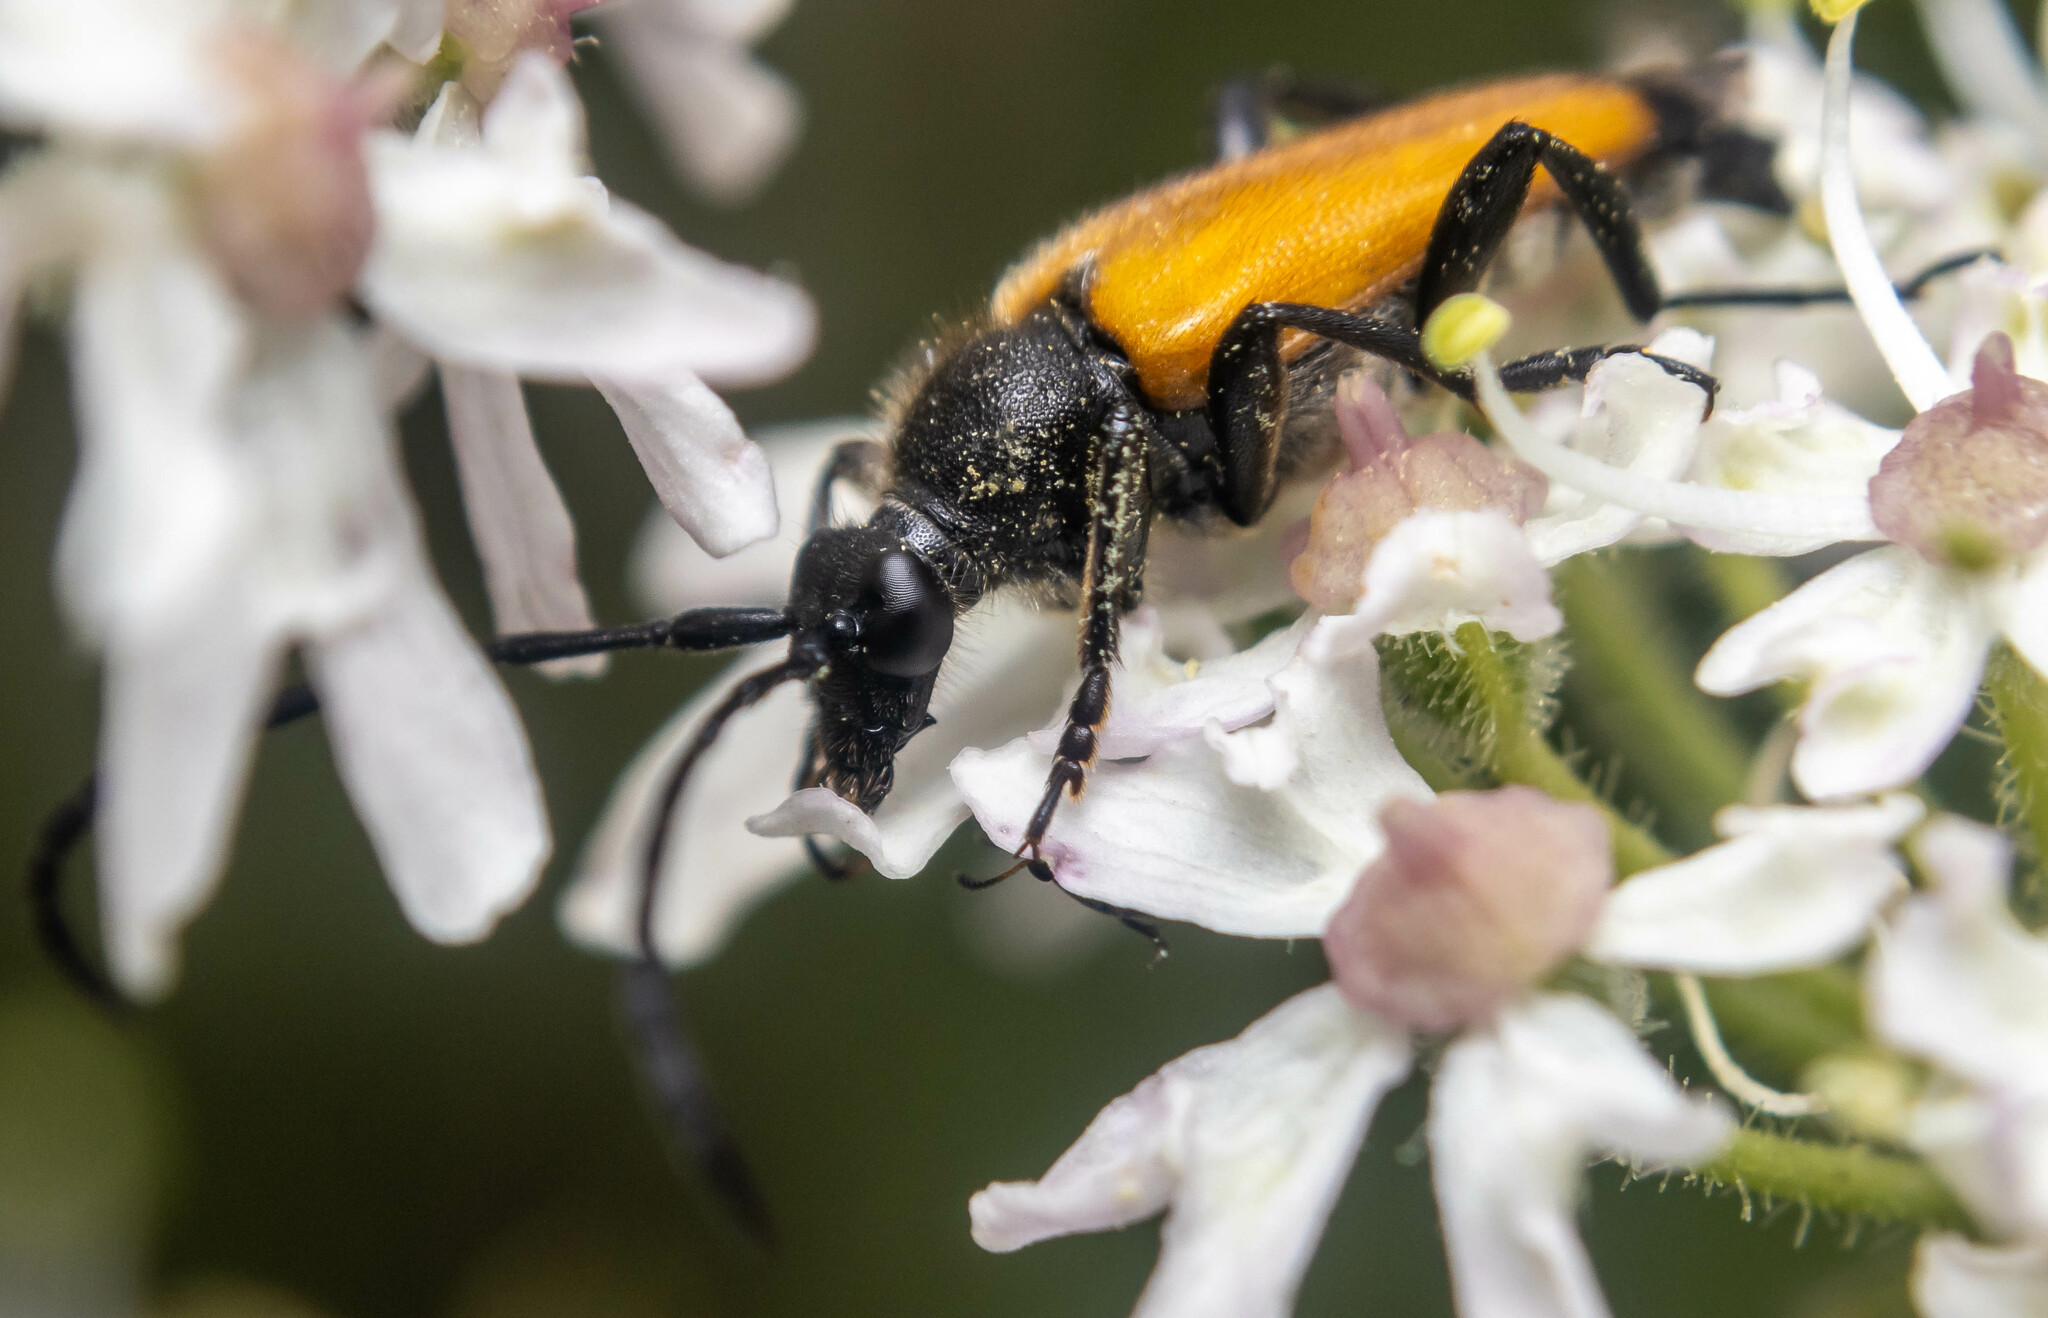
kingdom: Animalia
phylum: Arthropoda
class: Insecta
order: Coleoptera
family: Cerambycidae
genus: Paracorymbia
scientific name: Paracorymbia fulva
